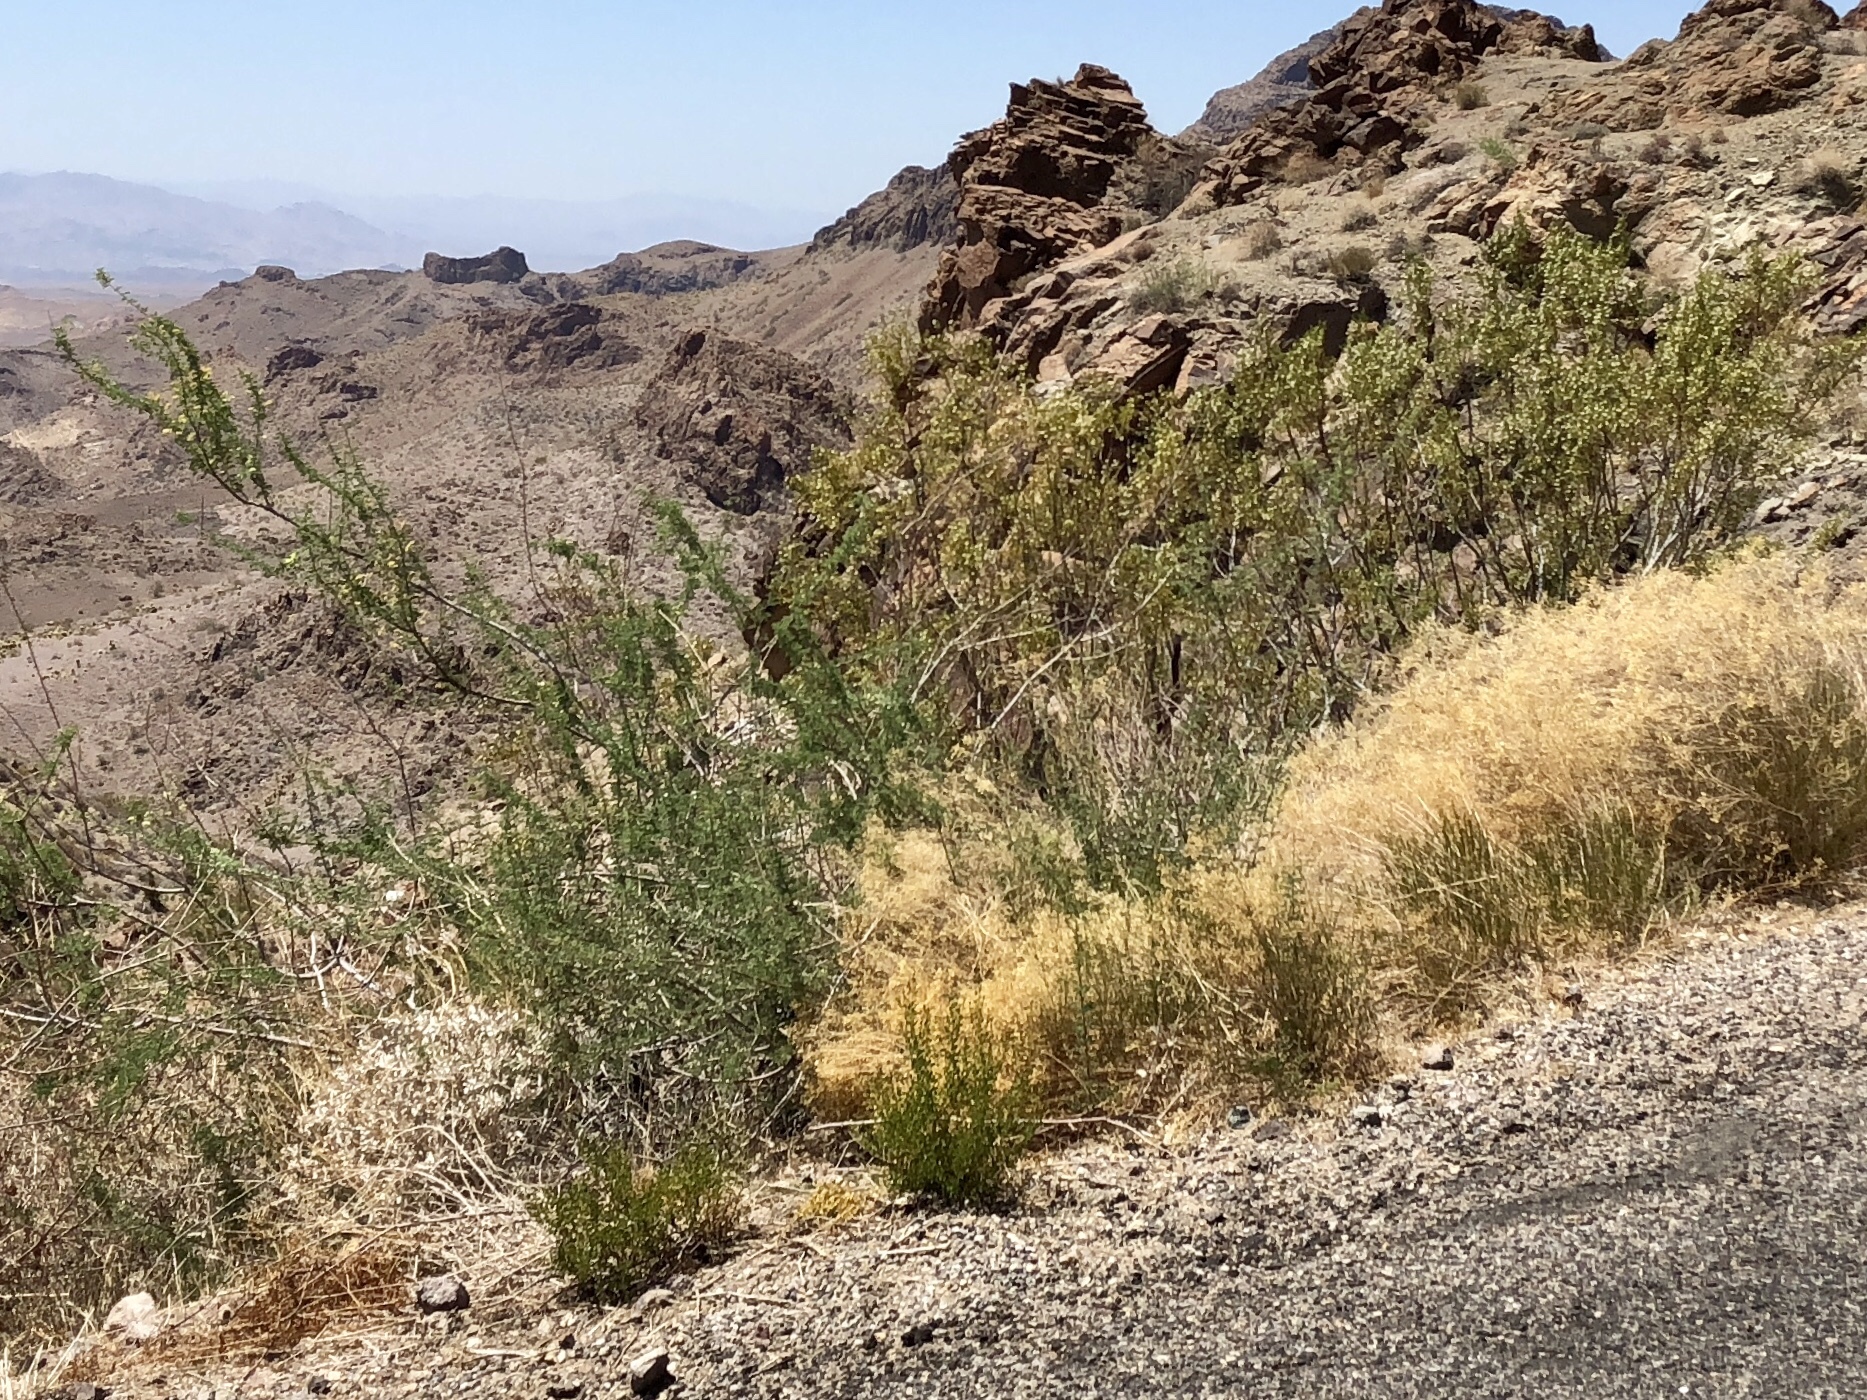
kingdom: Plantae
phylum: Tracheophyta
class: Magnoliopsida
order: Zygophyllales
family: Zygophyllaceae
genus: Larrea
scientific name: Larrea tridentata
